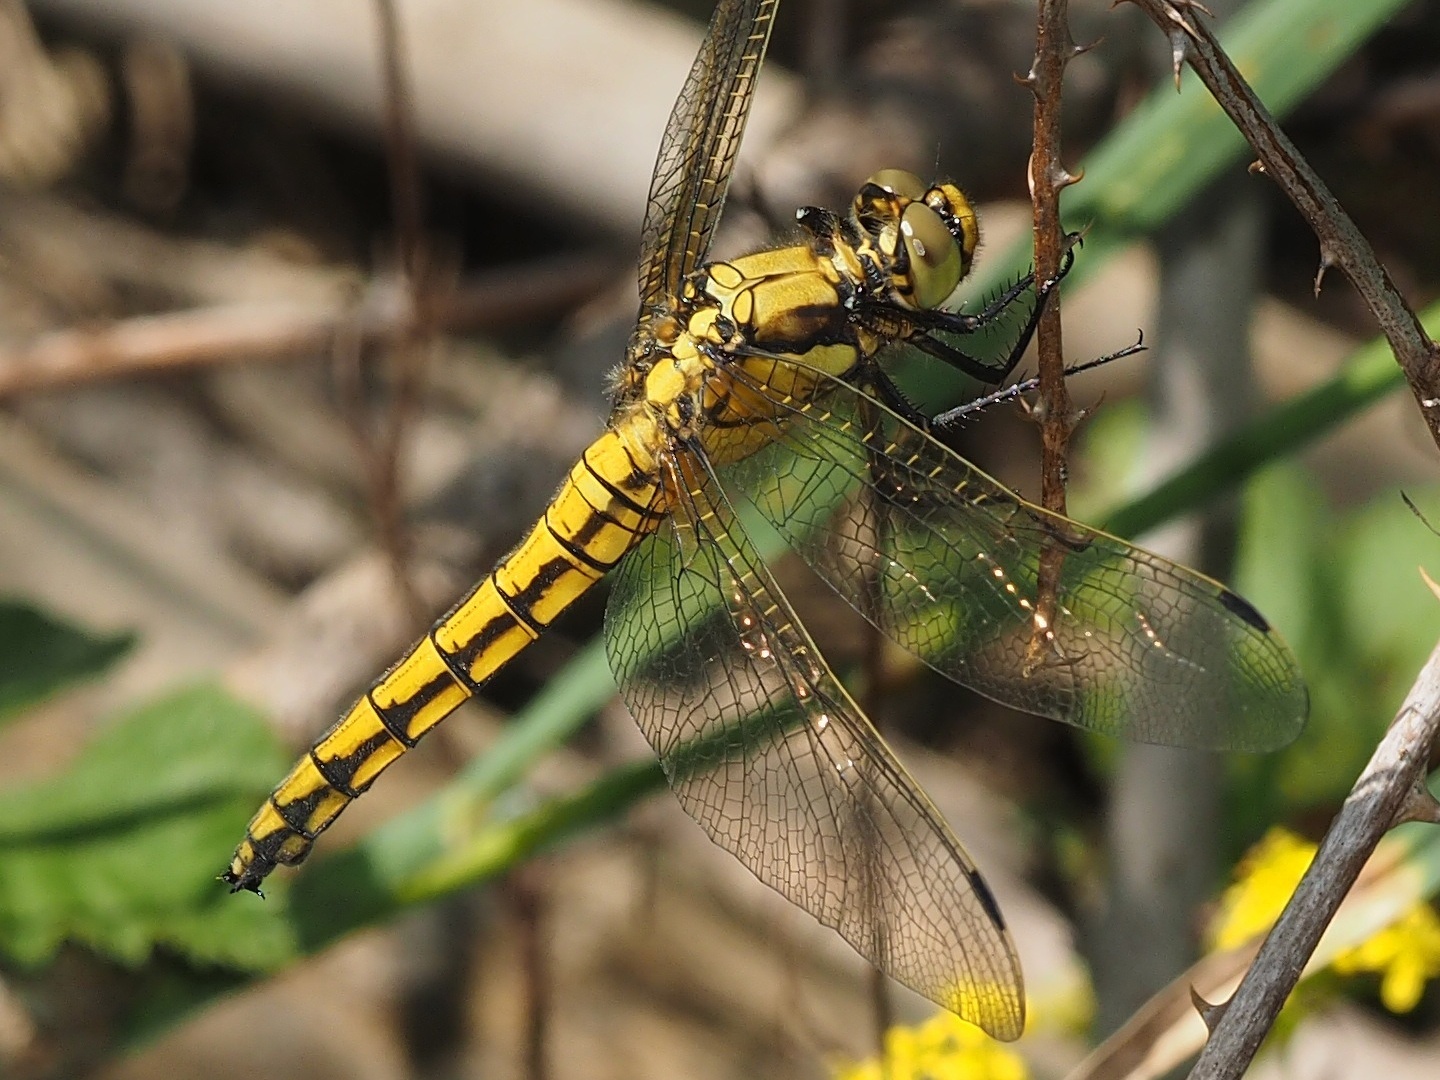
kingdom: Animalia
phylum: Arthropoda
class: Insecta
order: Odonata
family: Libellulidae
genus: Orthetrum
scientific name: Orthetrum cancellatum
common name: Black-tailed skimmer
